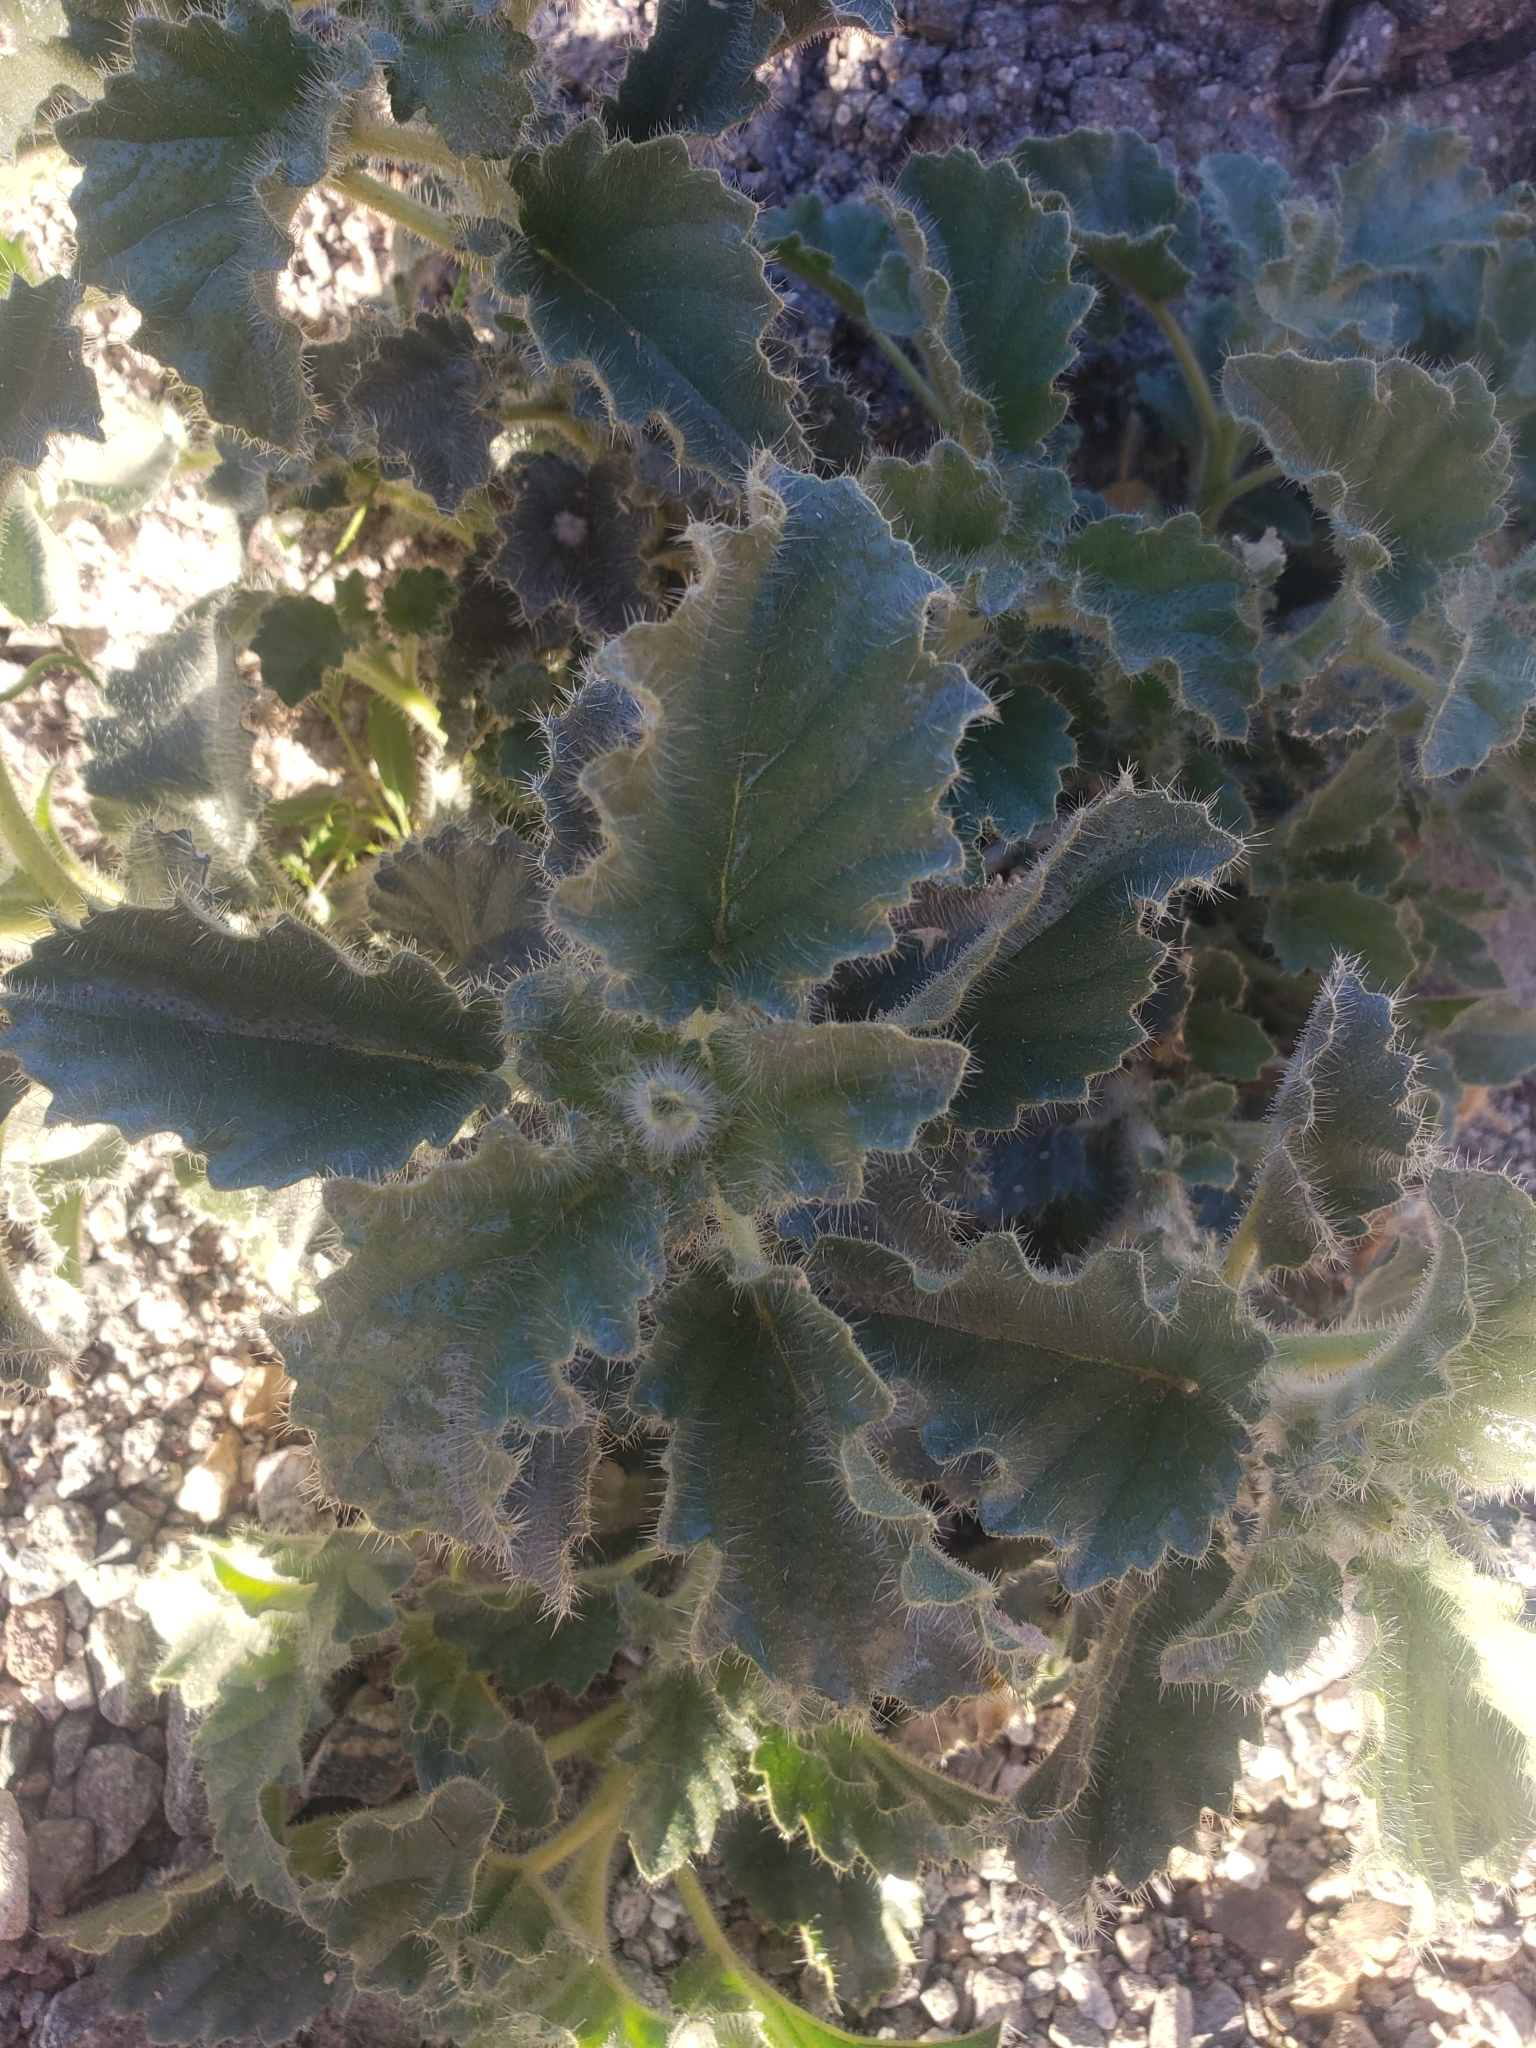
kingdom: Plantae
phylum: Tracheophyta
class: Magnoliopsida
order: Cornales
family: Loasaceae
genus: Eucnide
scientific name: Eucnide urens
